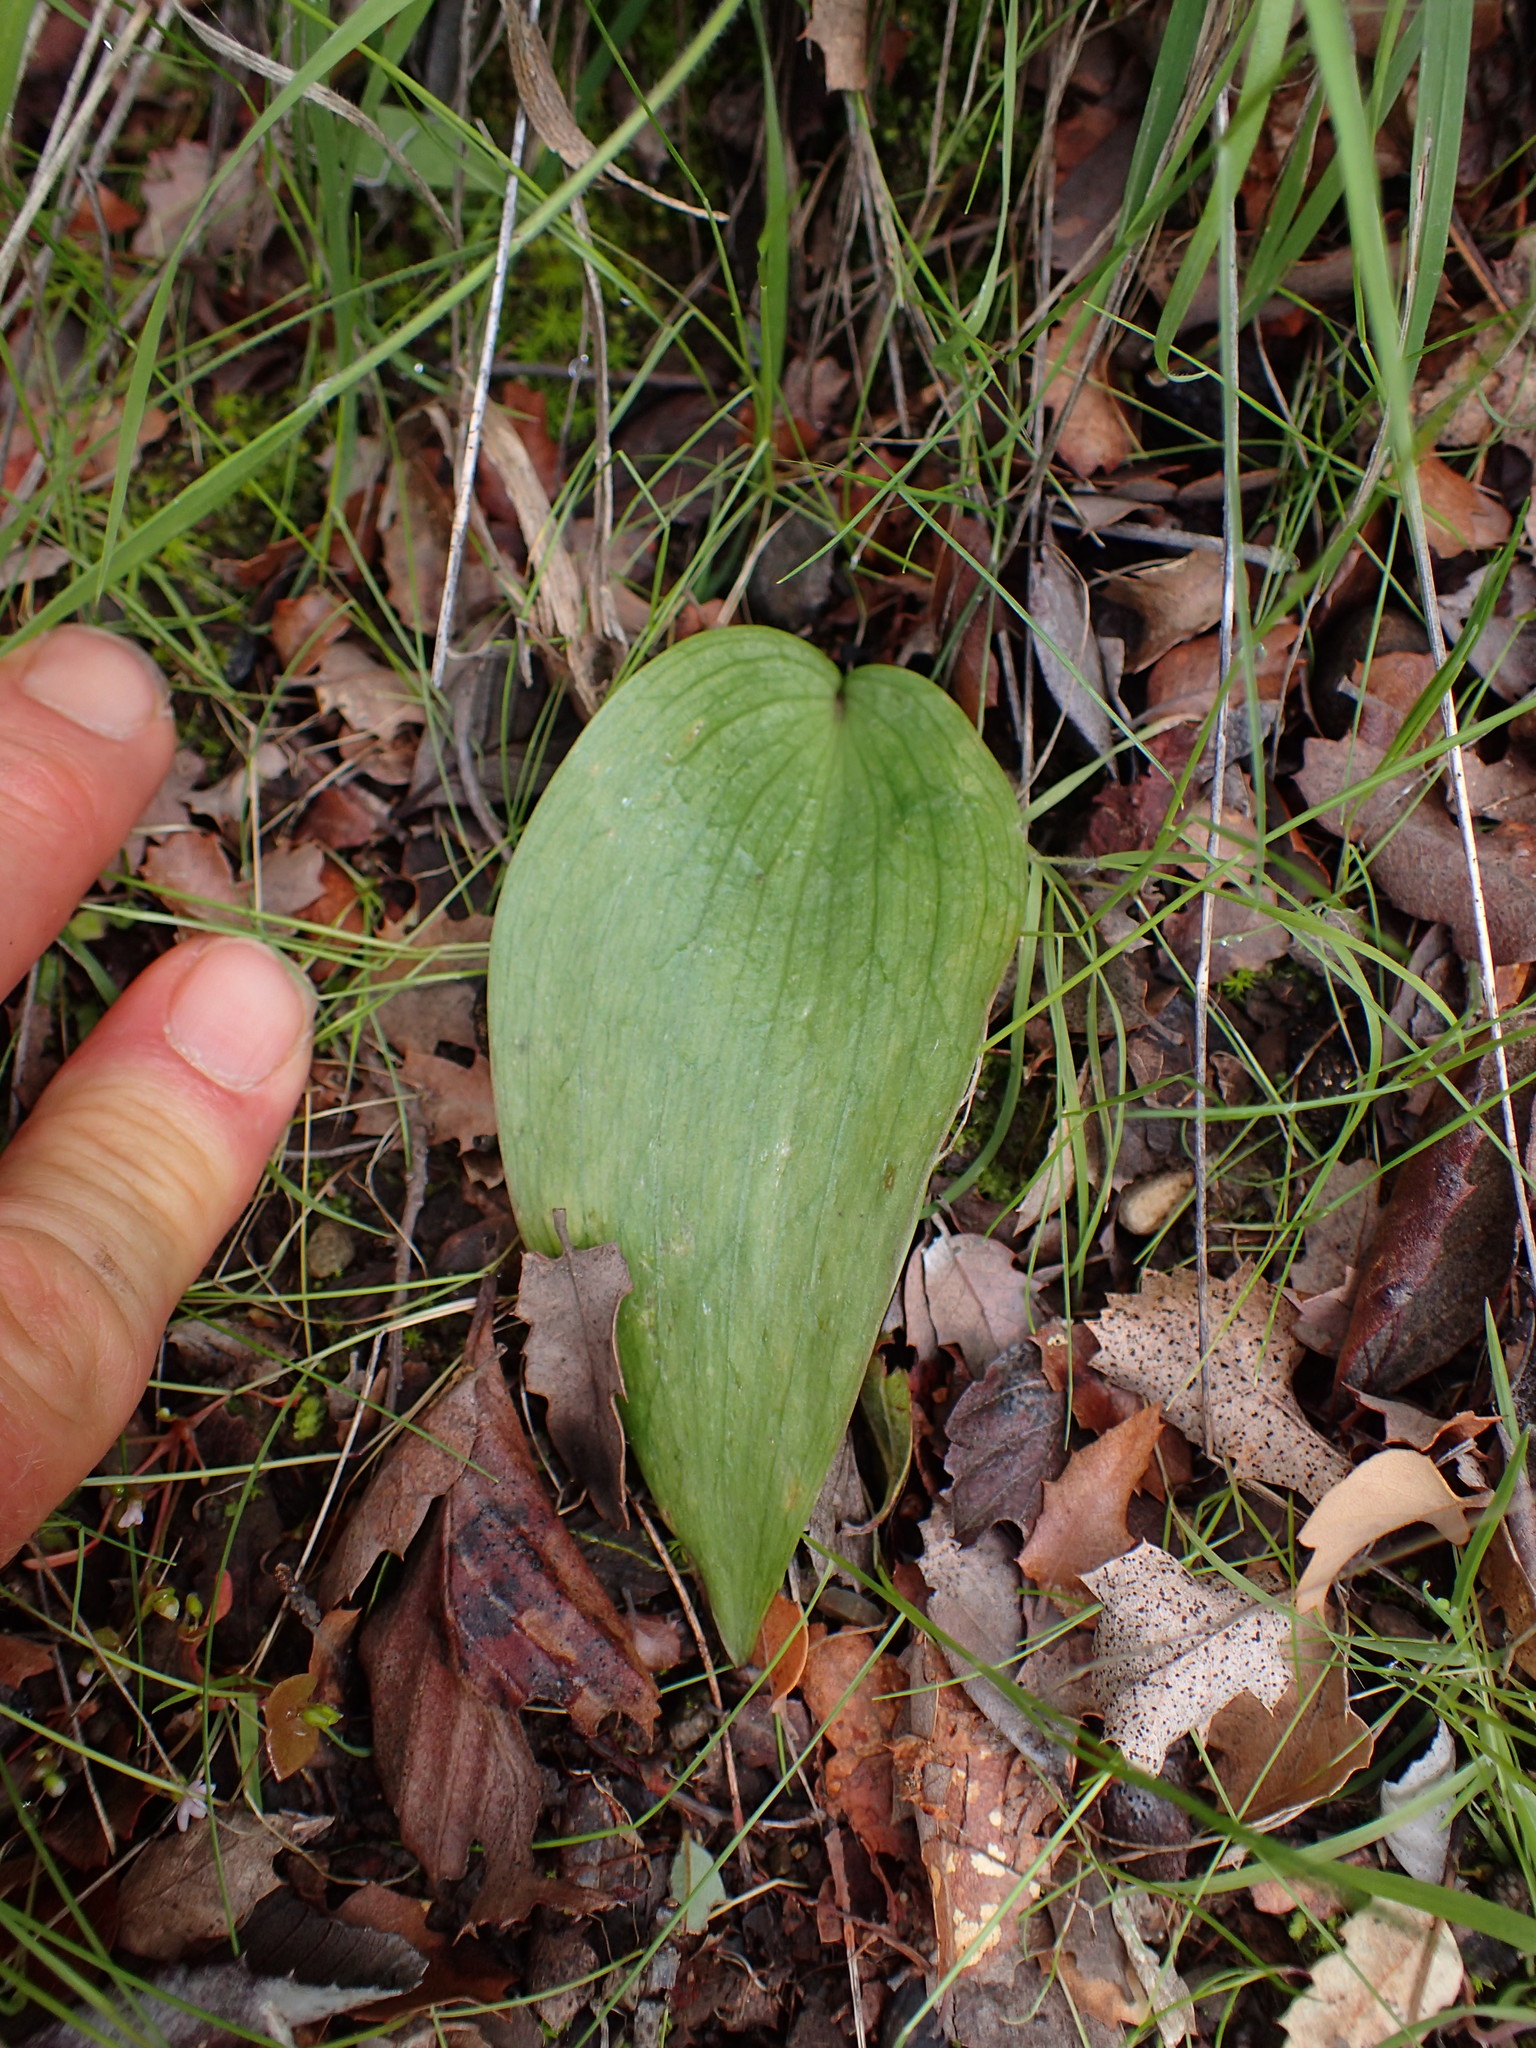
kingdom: Plantae
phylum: Tracheophyta
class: Liliopsida
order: Liliales
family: Liliaceae
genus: Fritillaria
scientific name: Fritillaria ojaiensis
